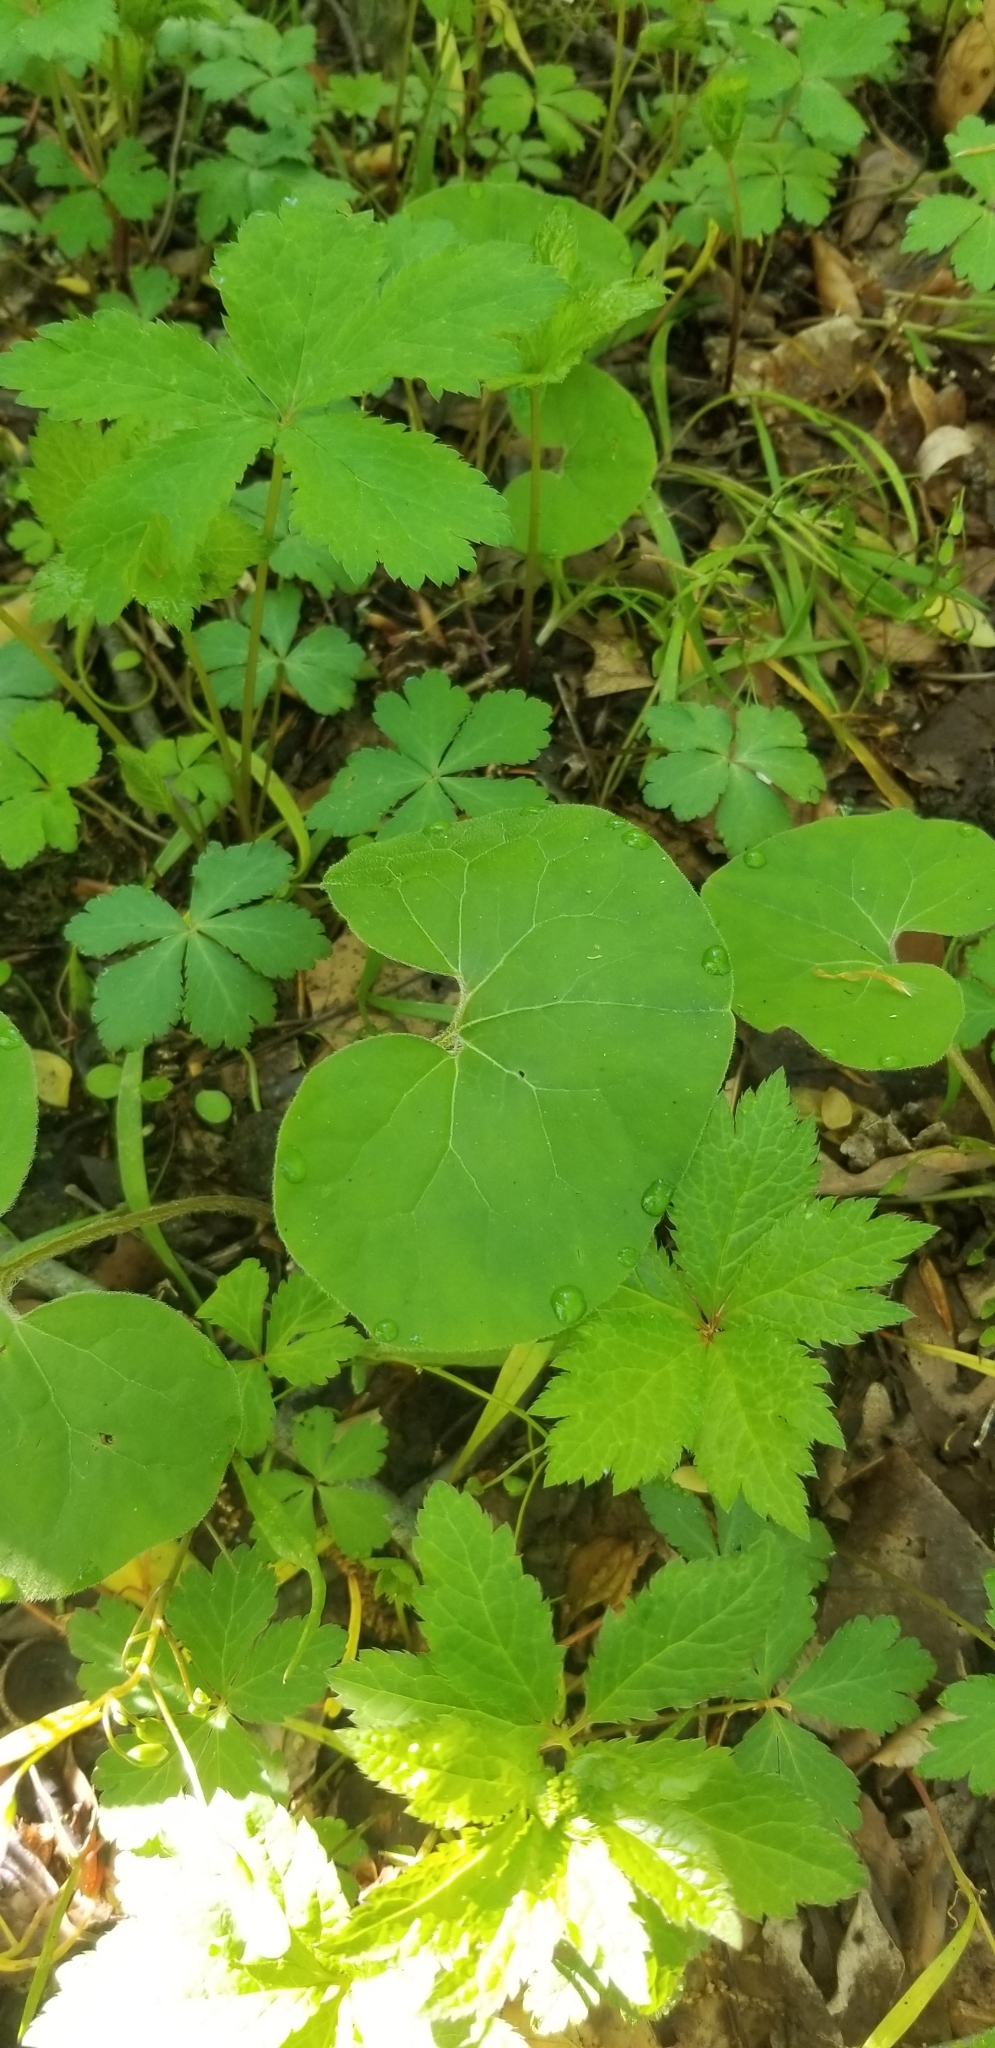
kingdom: Plantae
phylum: Tracheophyta
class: Magnoliopsida
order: Piperales
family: Aristolochiaceae
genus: Asarum
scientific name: Asarum canadense
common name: Wild ginger
